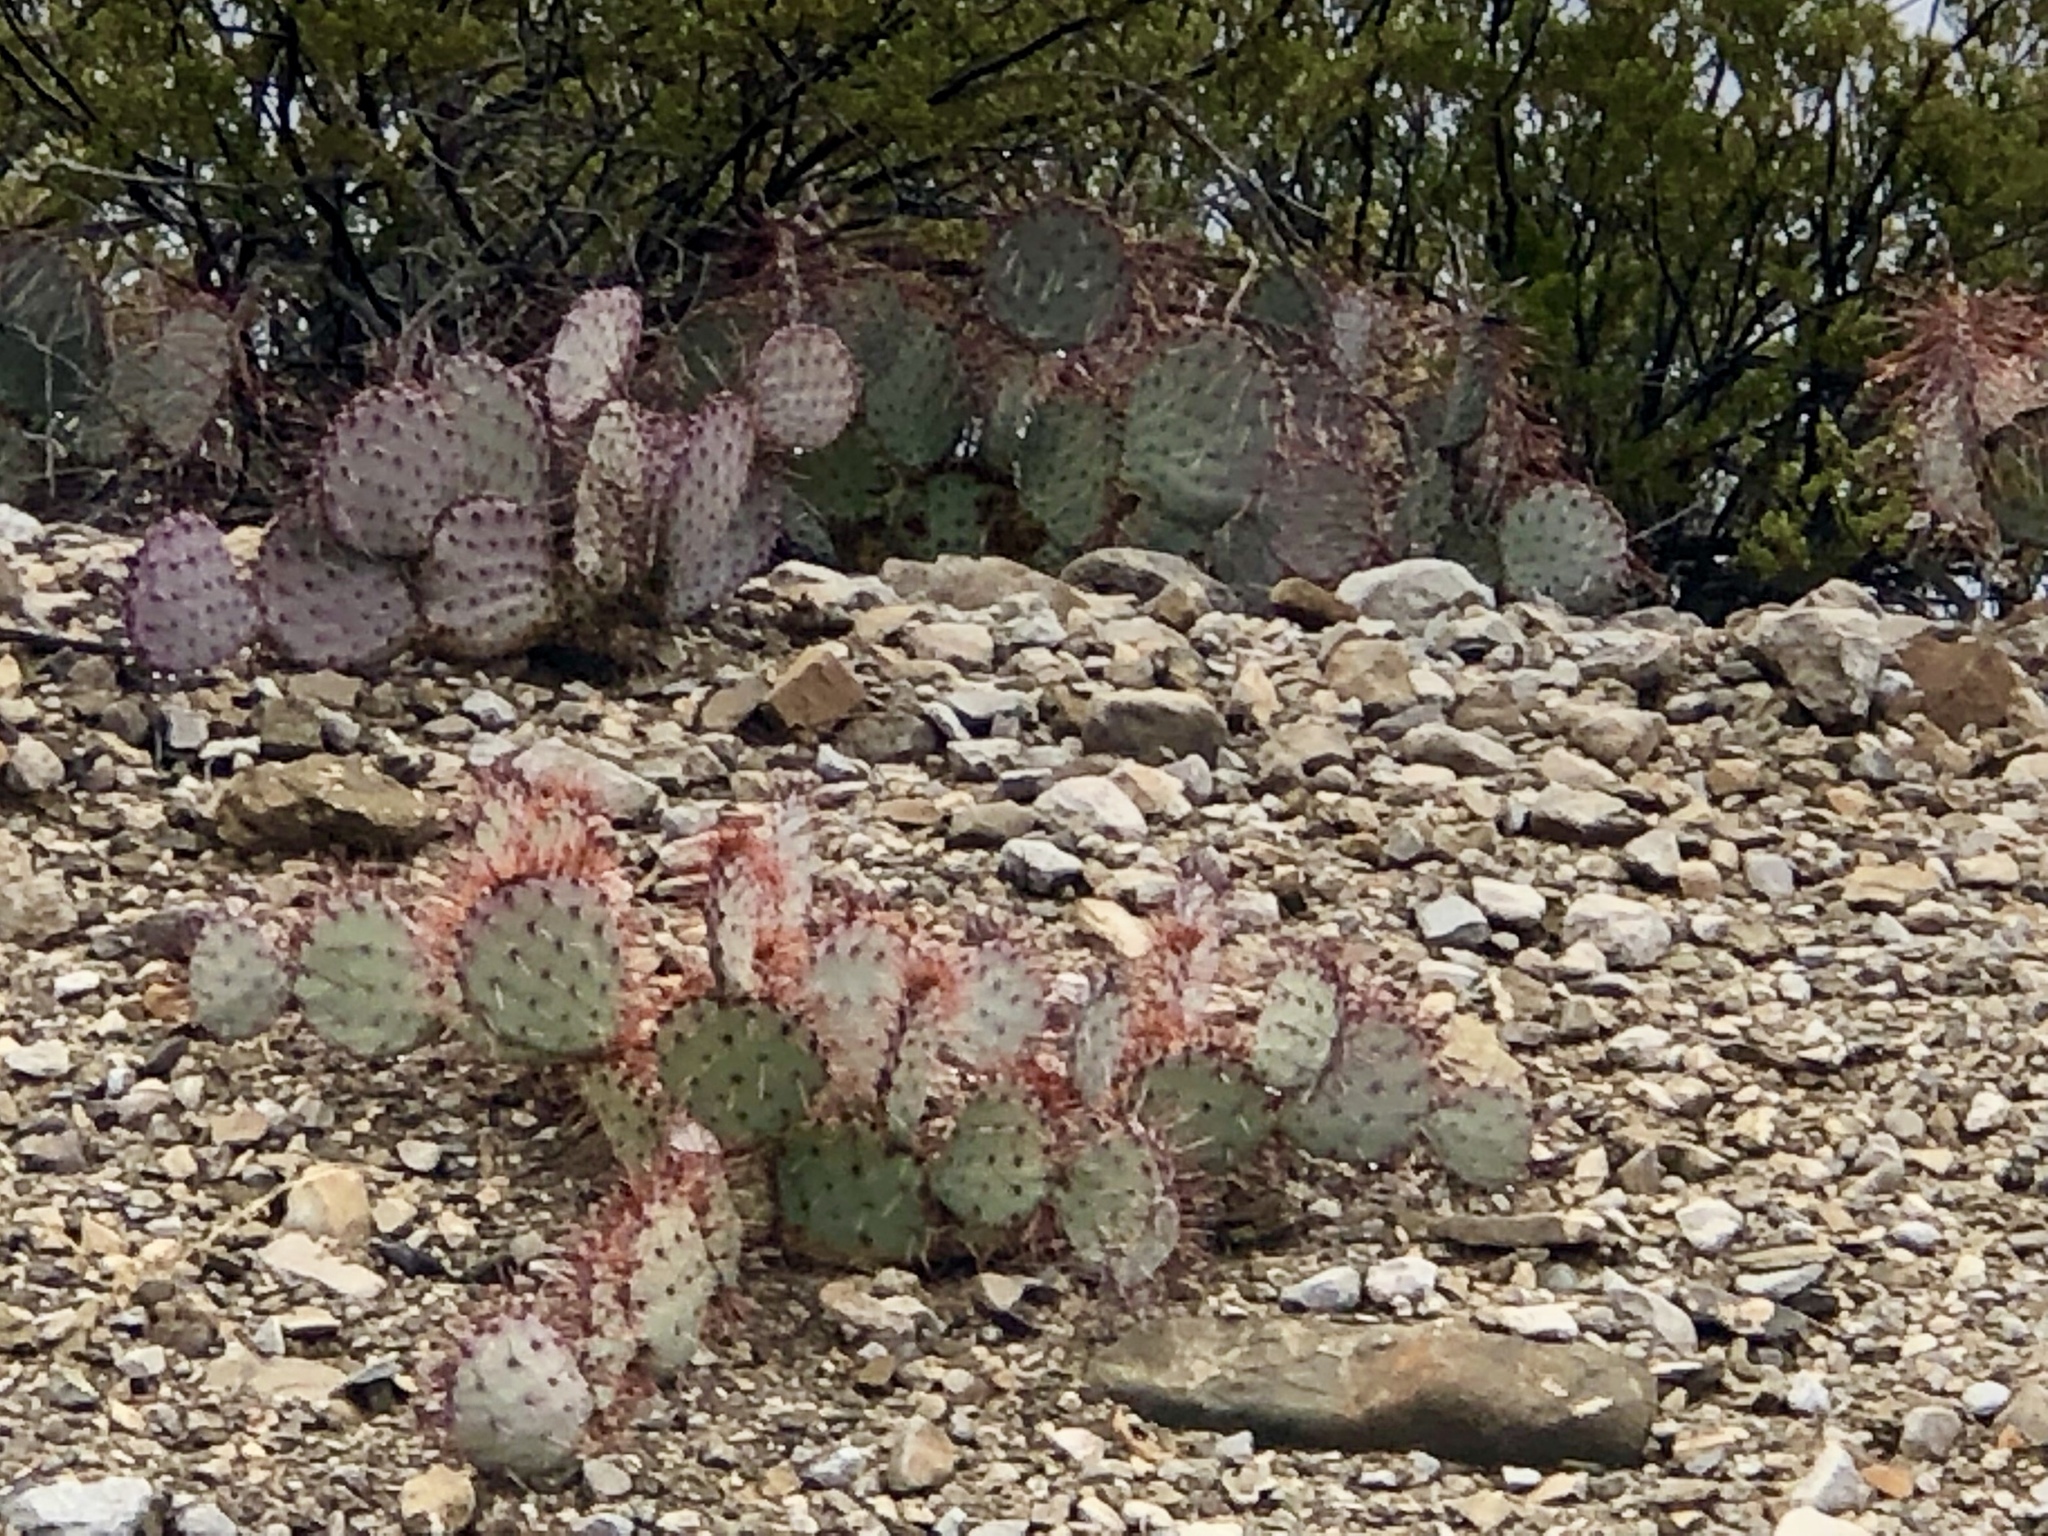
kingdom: Plantae
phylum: Tracheophyta
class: Magnoliopsida
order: Caryophyllales
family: Cactaceae
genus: Opuntia
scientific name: Opuntia macrocentra
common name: Purple prickly-pear
